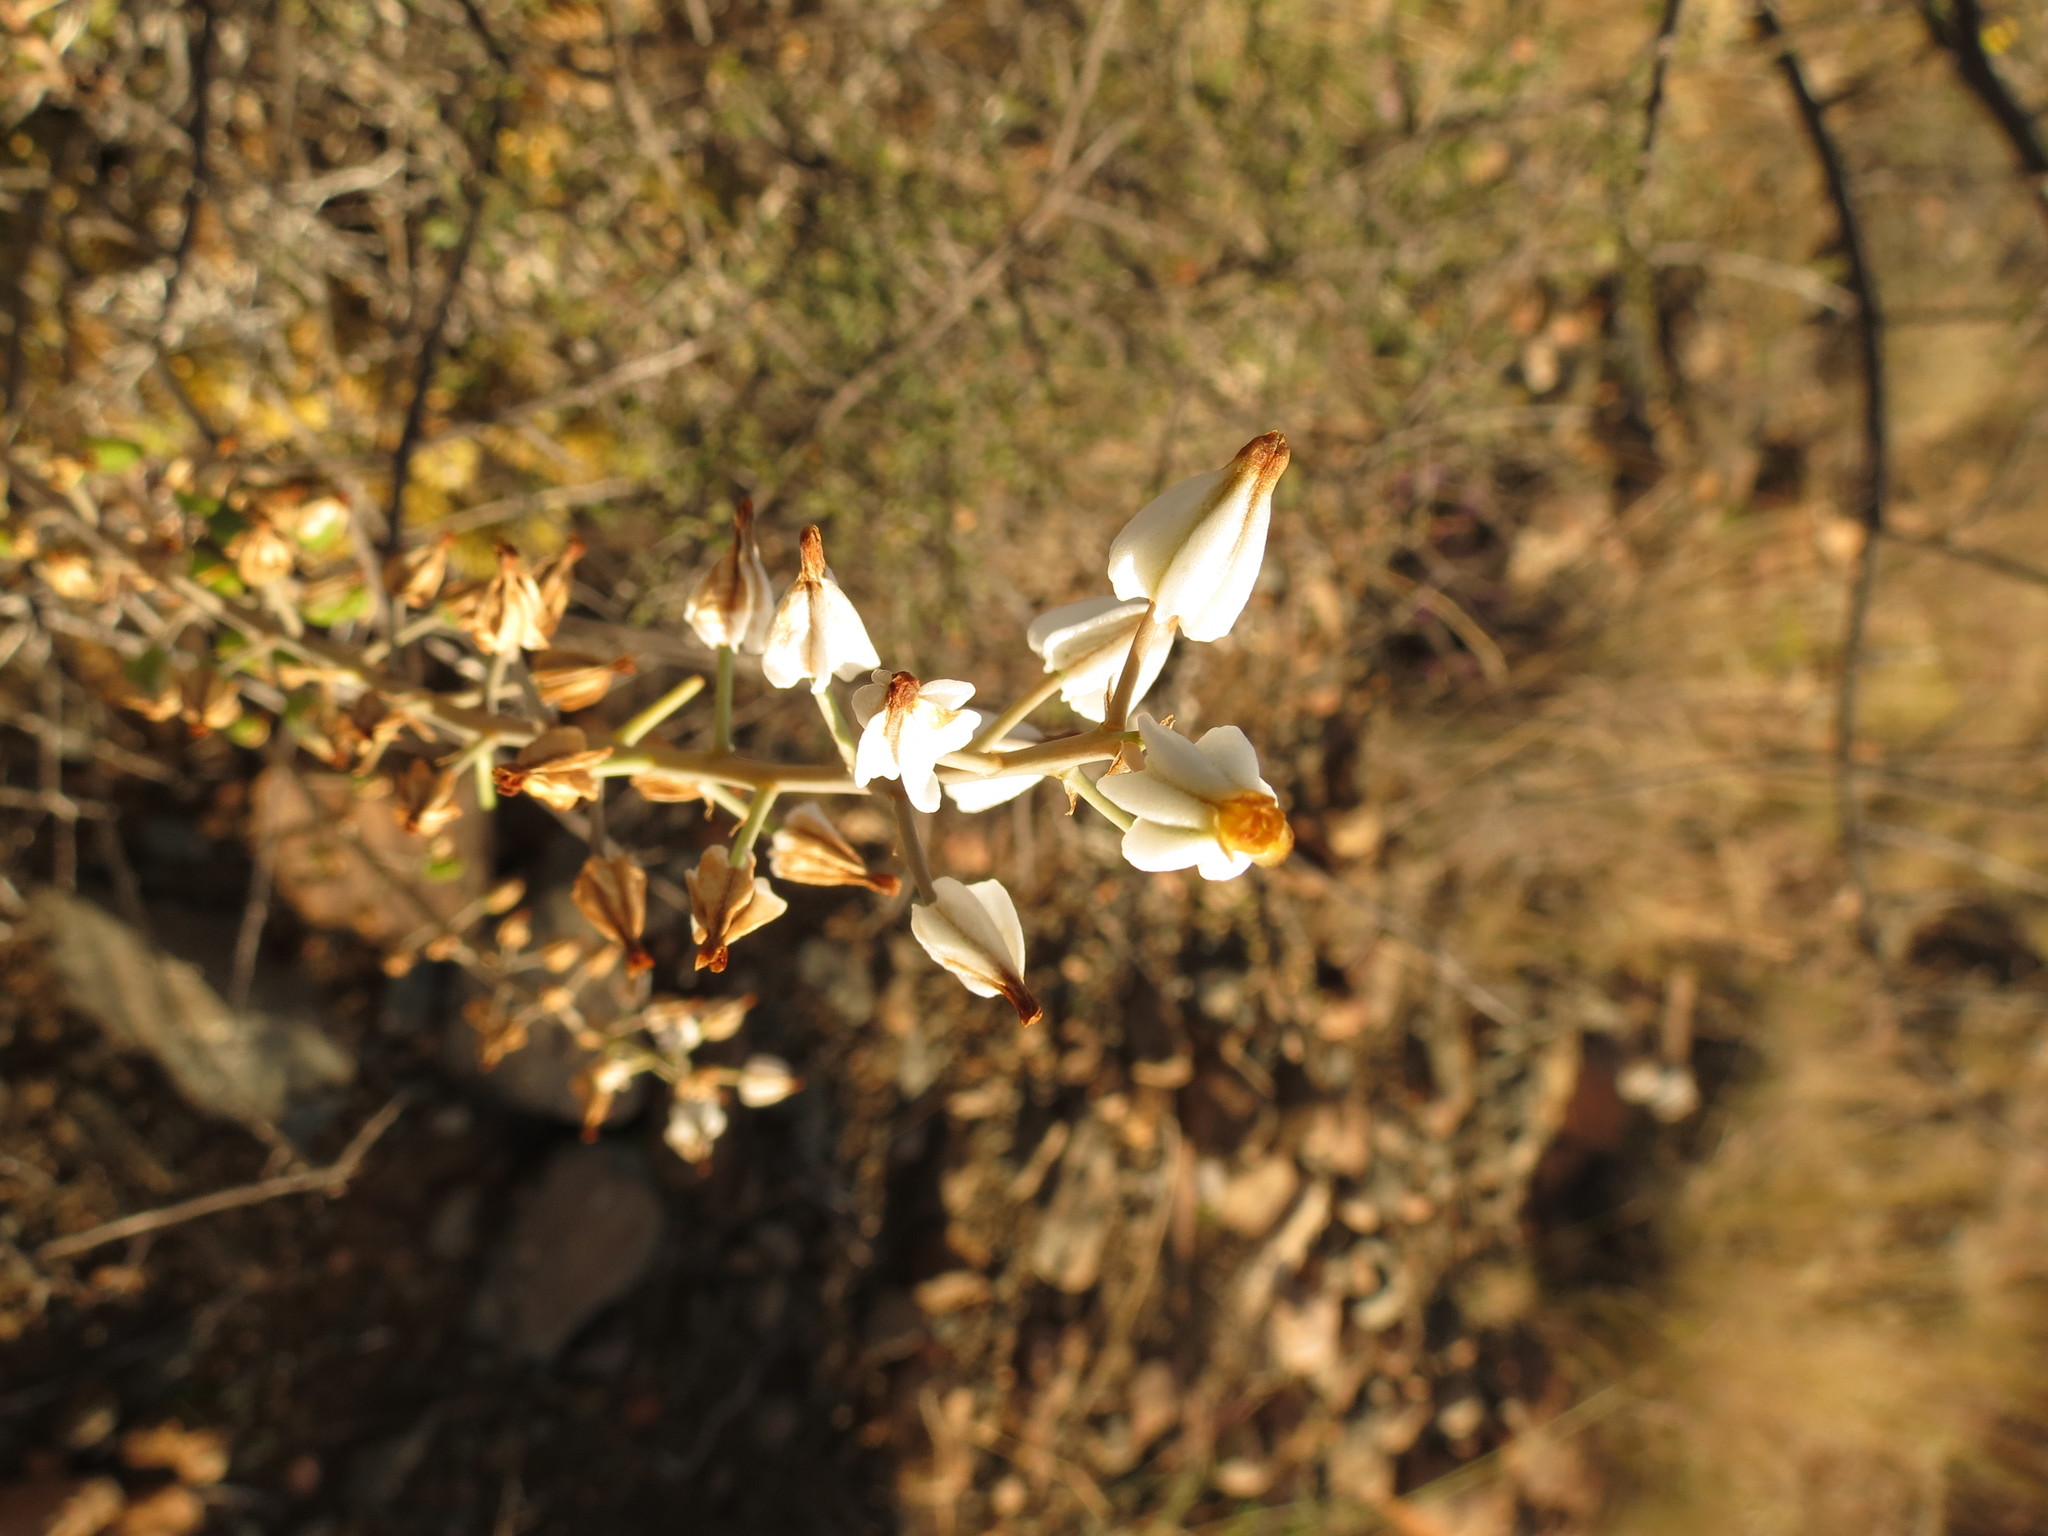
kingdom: Plantae
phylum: Tracheophyta
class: Liliopsida
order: Asparagales
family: Asphodelaceae
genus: Astroloba
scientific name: Astroloba herrei
